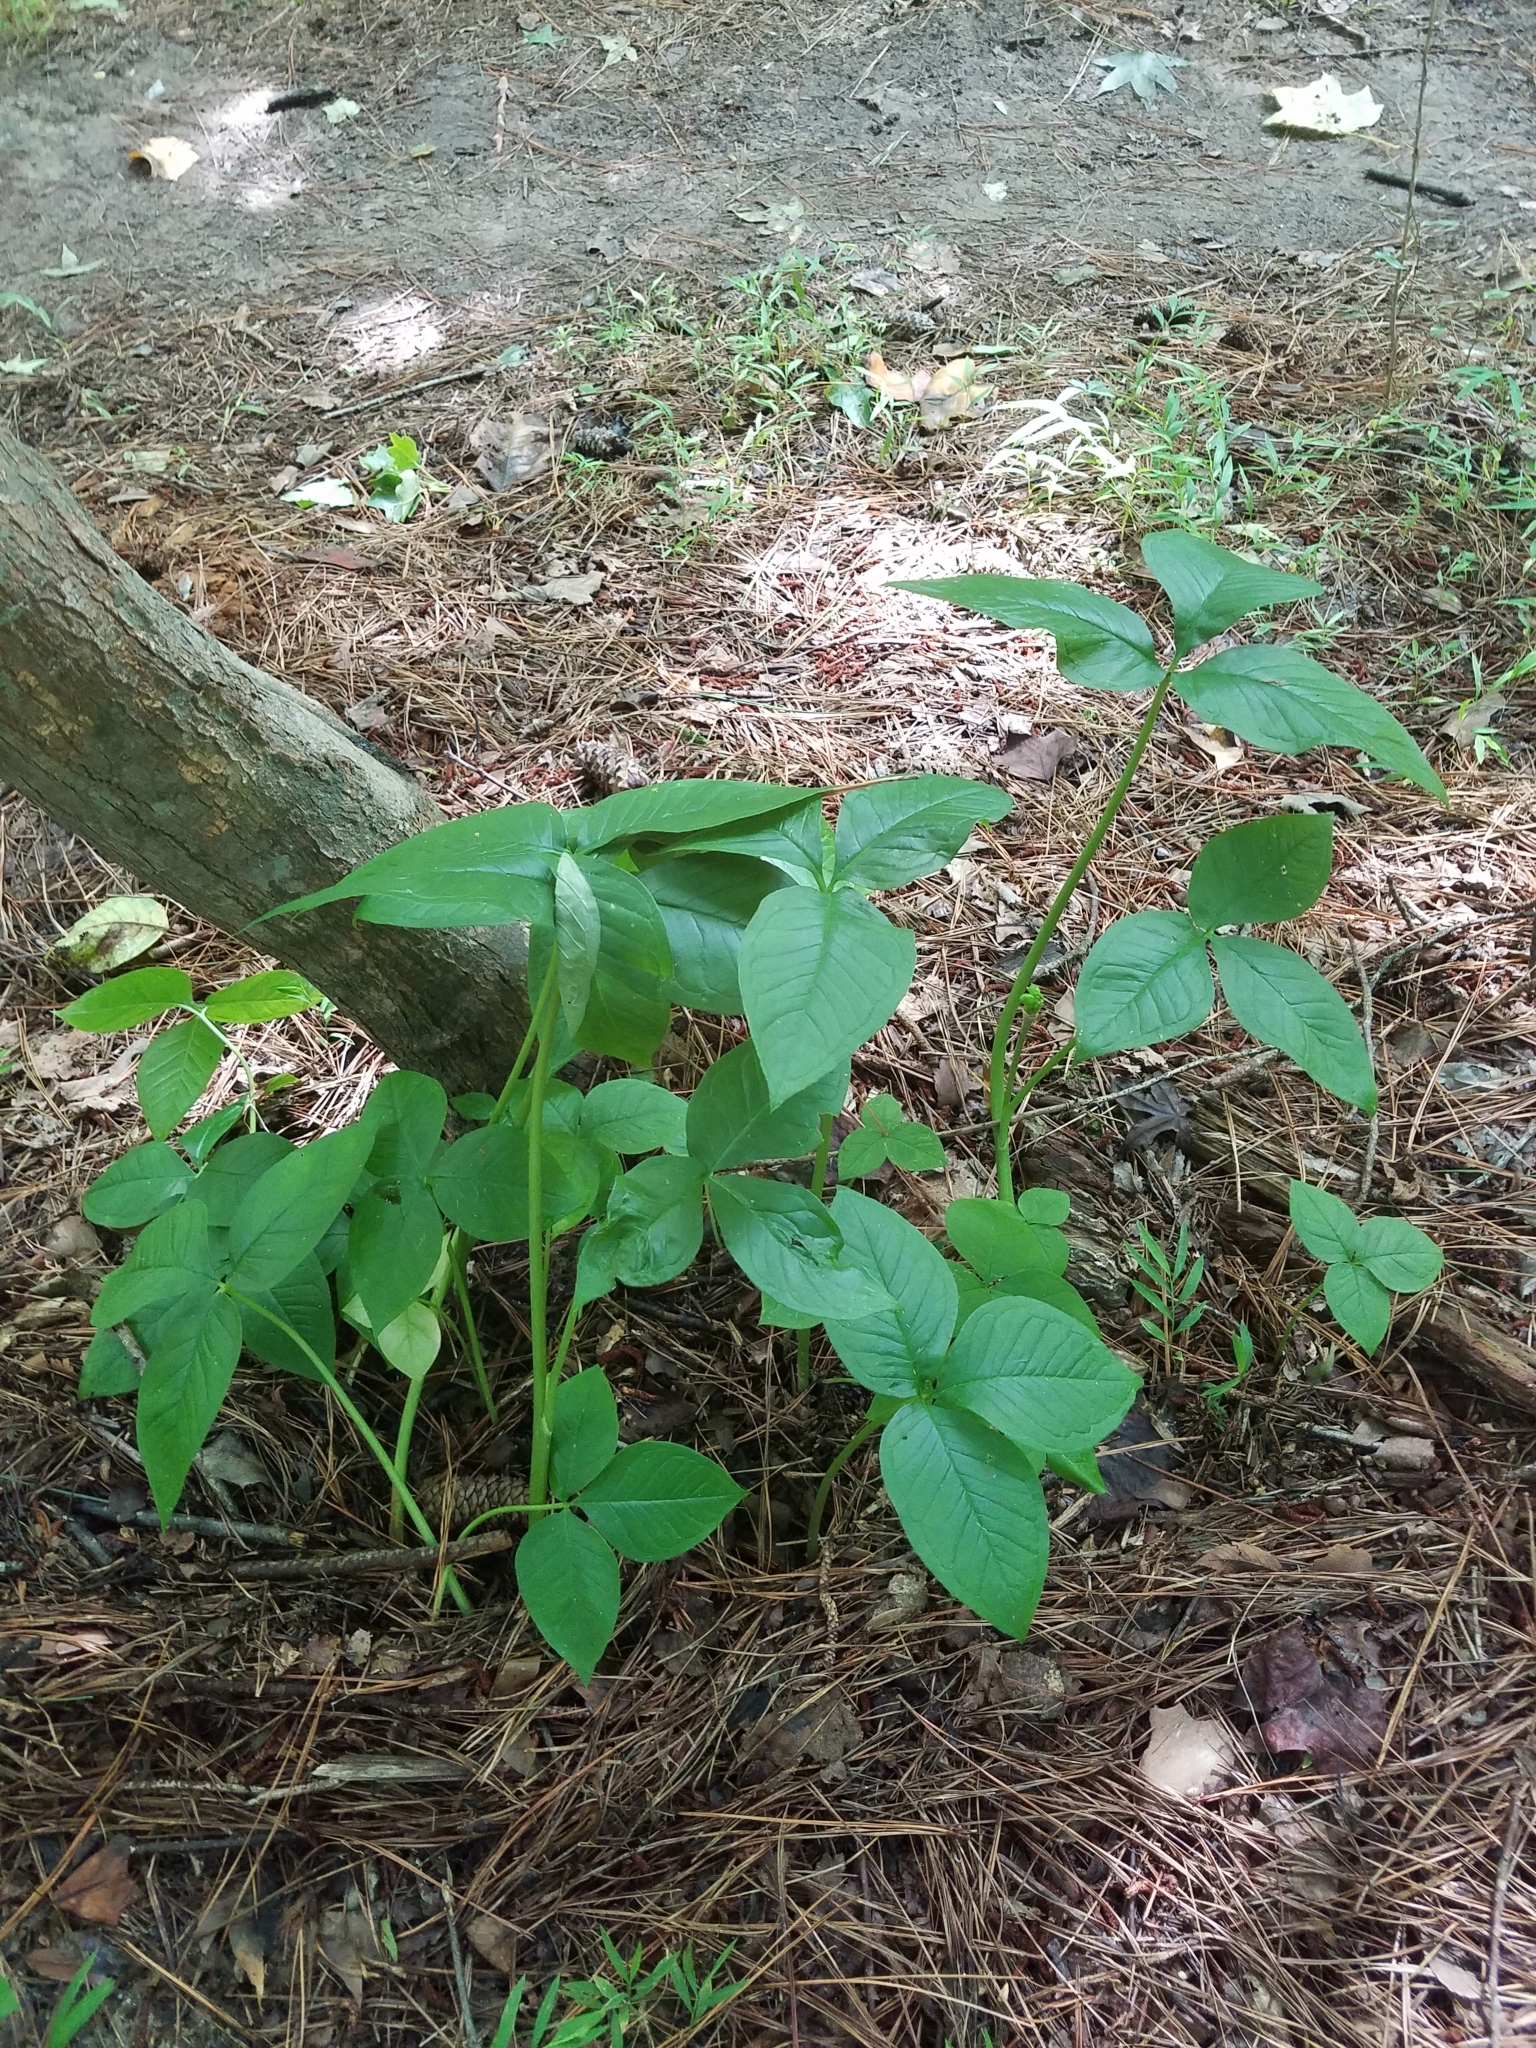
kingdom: Plantae
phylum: Tracheophyta
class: Liliopsida
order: Alismatales
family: Araceae
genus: Arisaema
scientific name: Arisaema triphyllum
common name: Jack-in-the-pulpit
